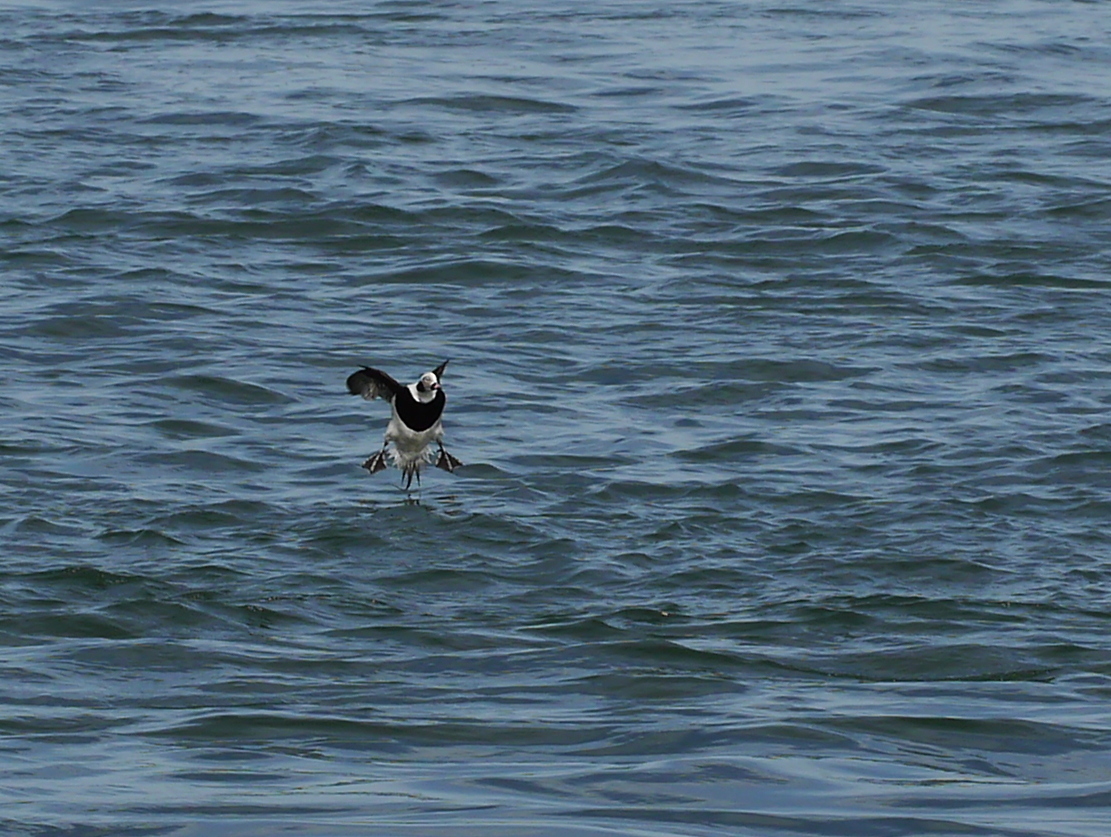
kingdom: Animalia
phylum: Chordata
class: Aves
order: Anseriformes
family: Anatidae
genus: Clangula
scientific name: Clangula hyemalis
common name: Long-tailed duck
